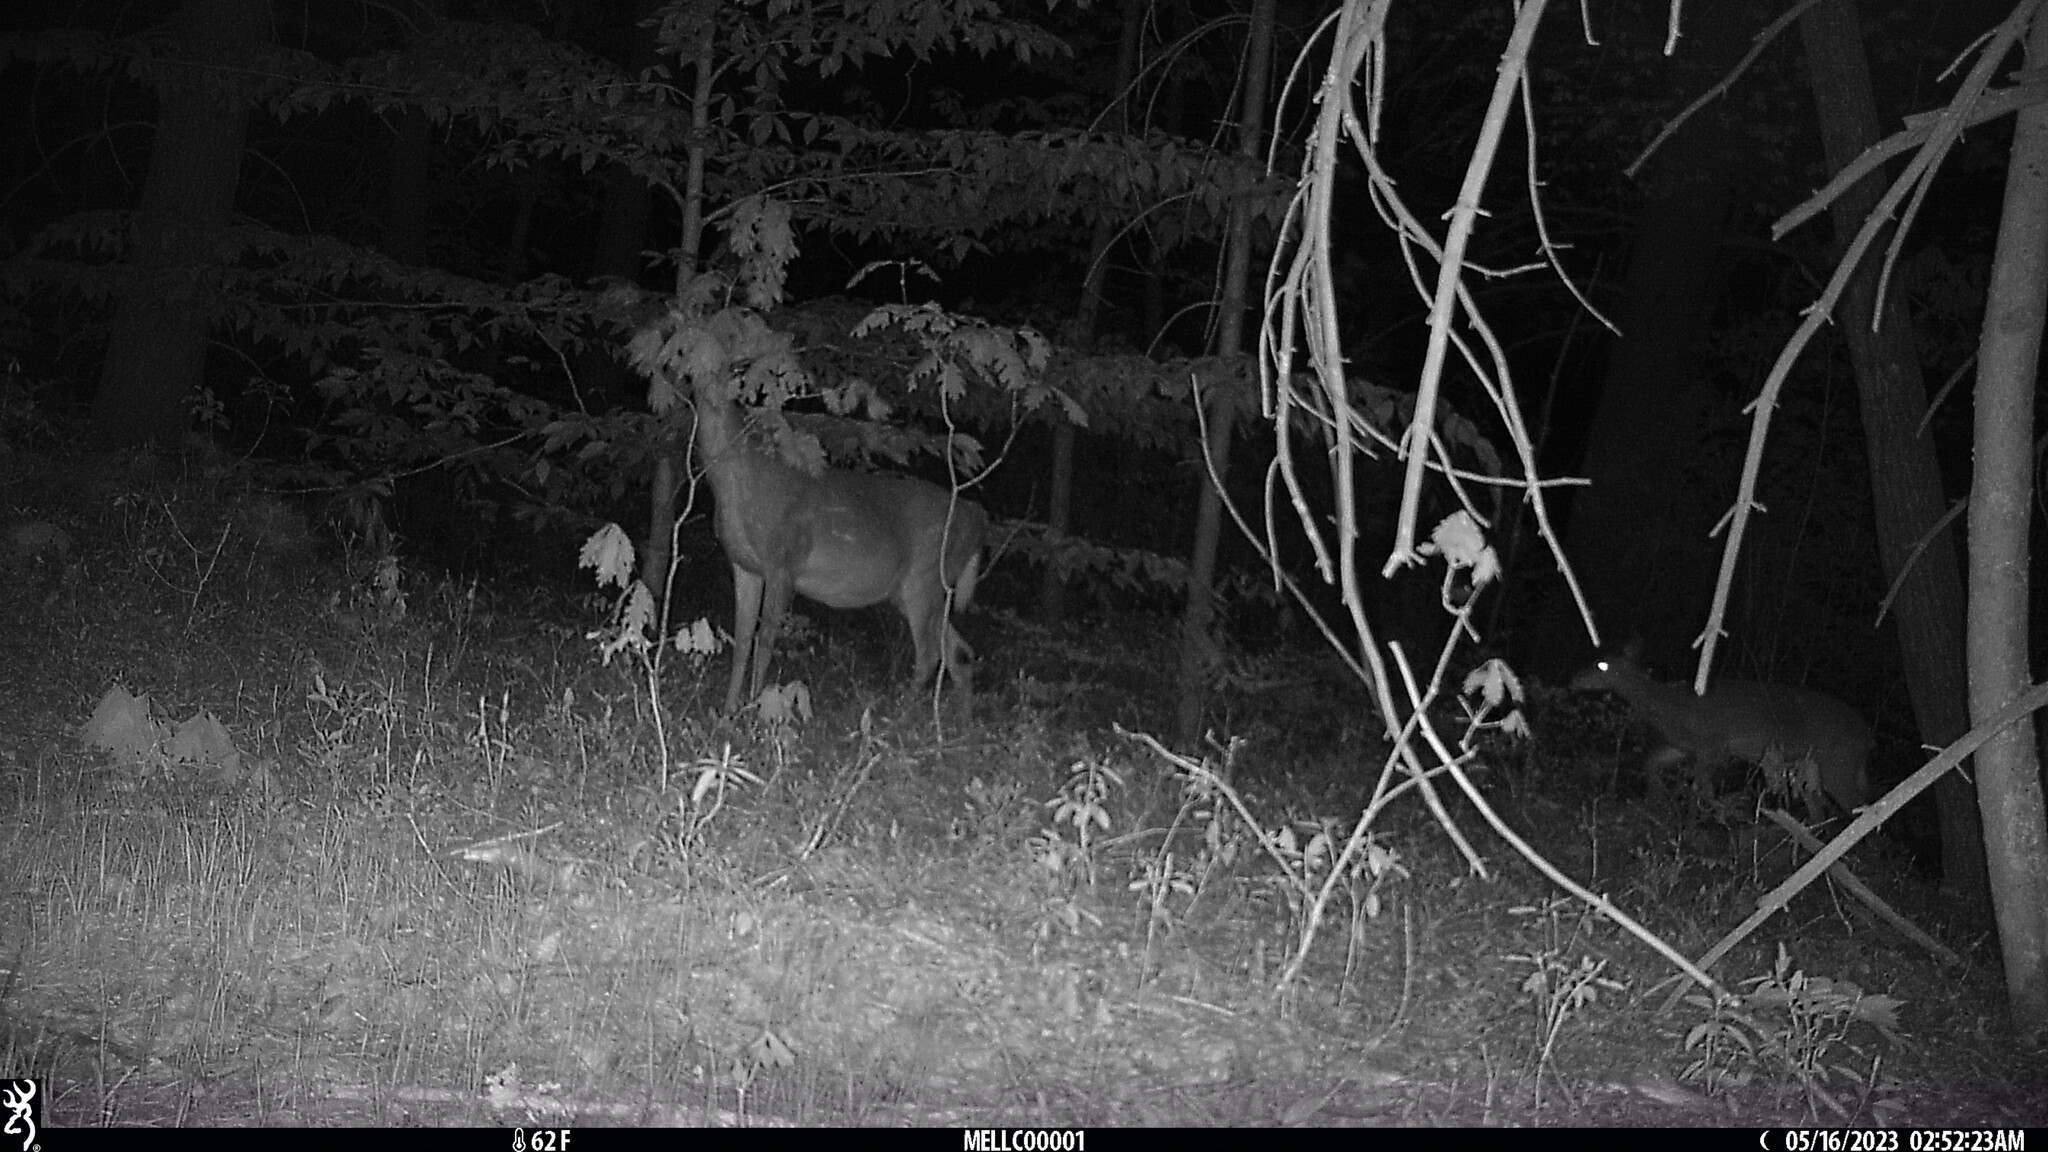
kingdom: Animalia
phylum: Chordata
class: Mammalia
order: Artiodactyla
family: Cervidae
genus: Odocoileus
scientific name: Odocoileus virginianus
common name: White-tailed deer
